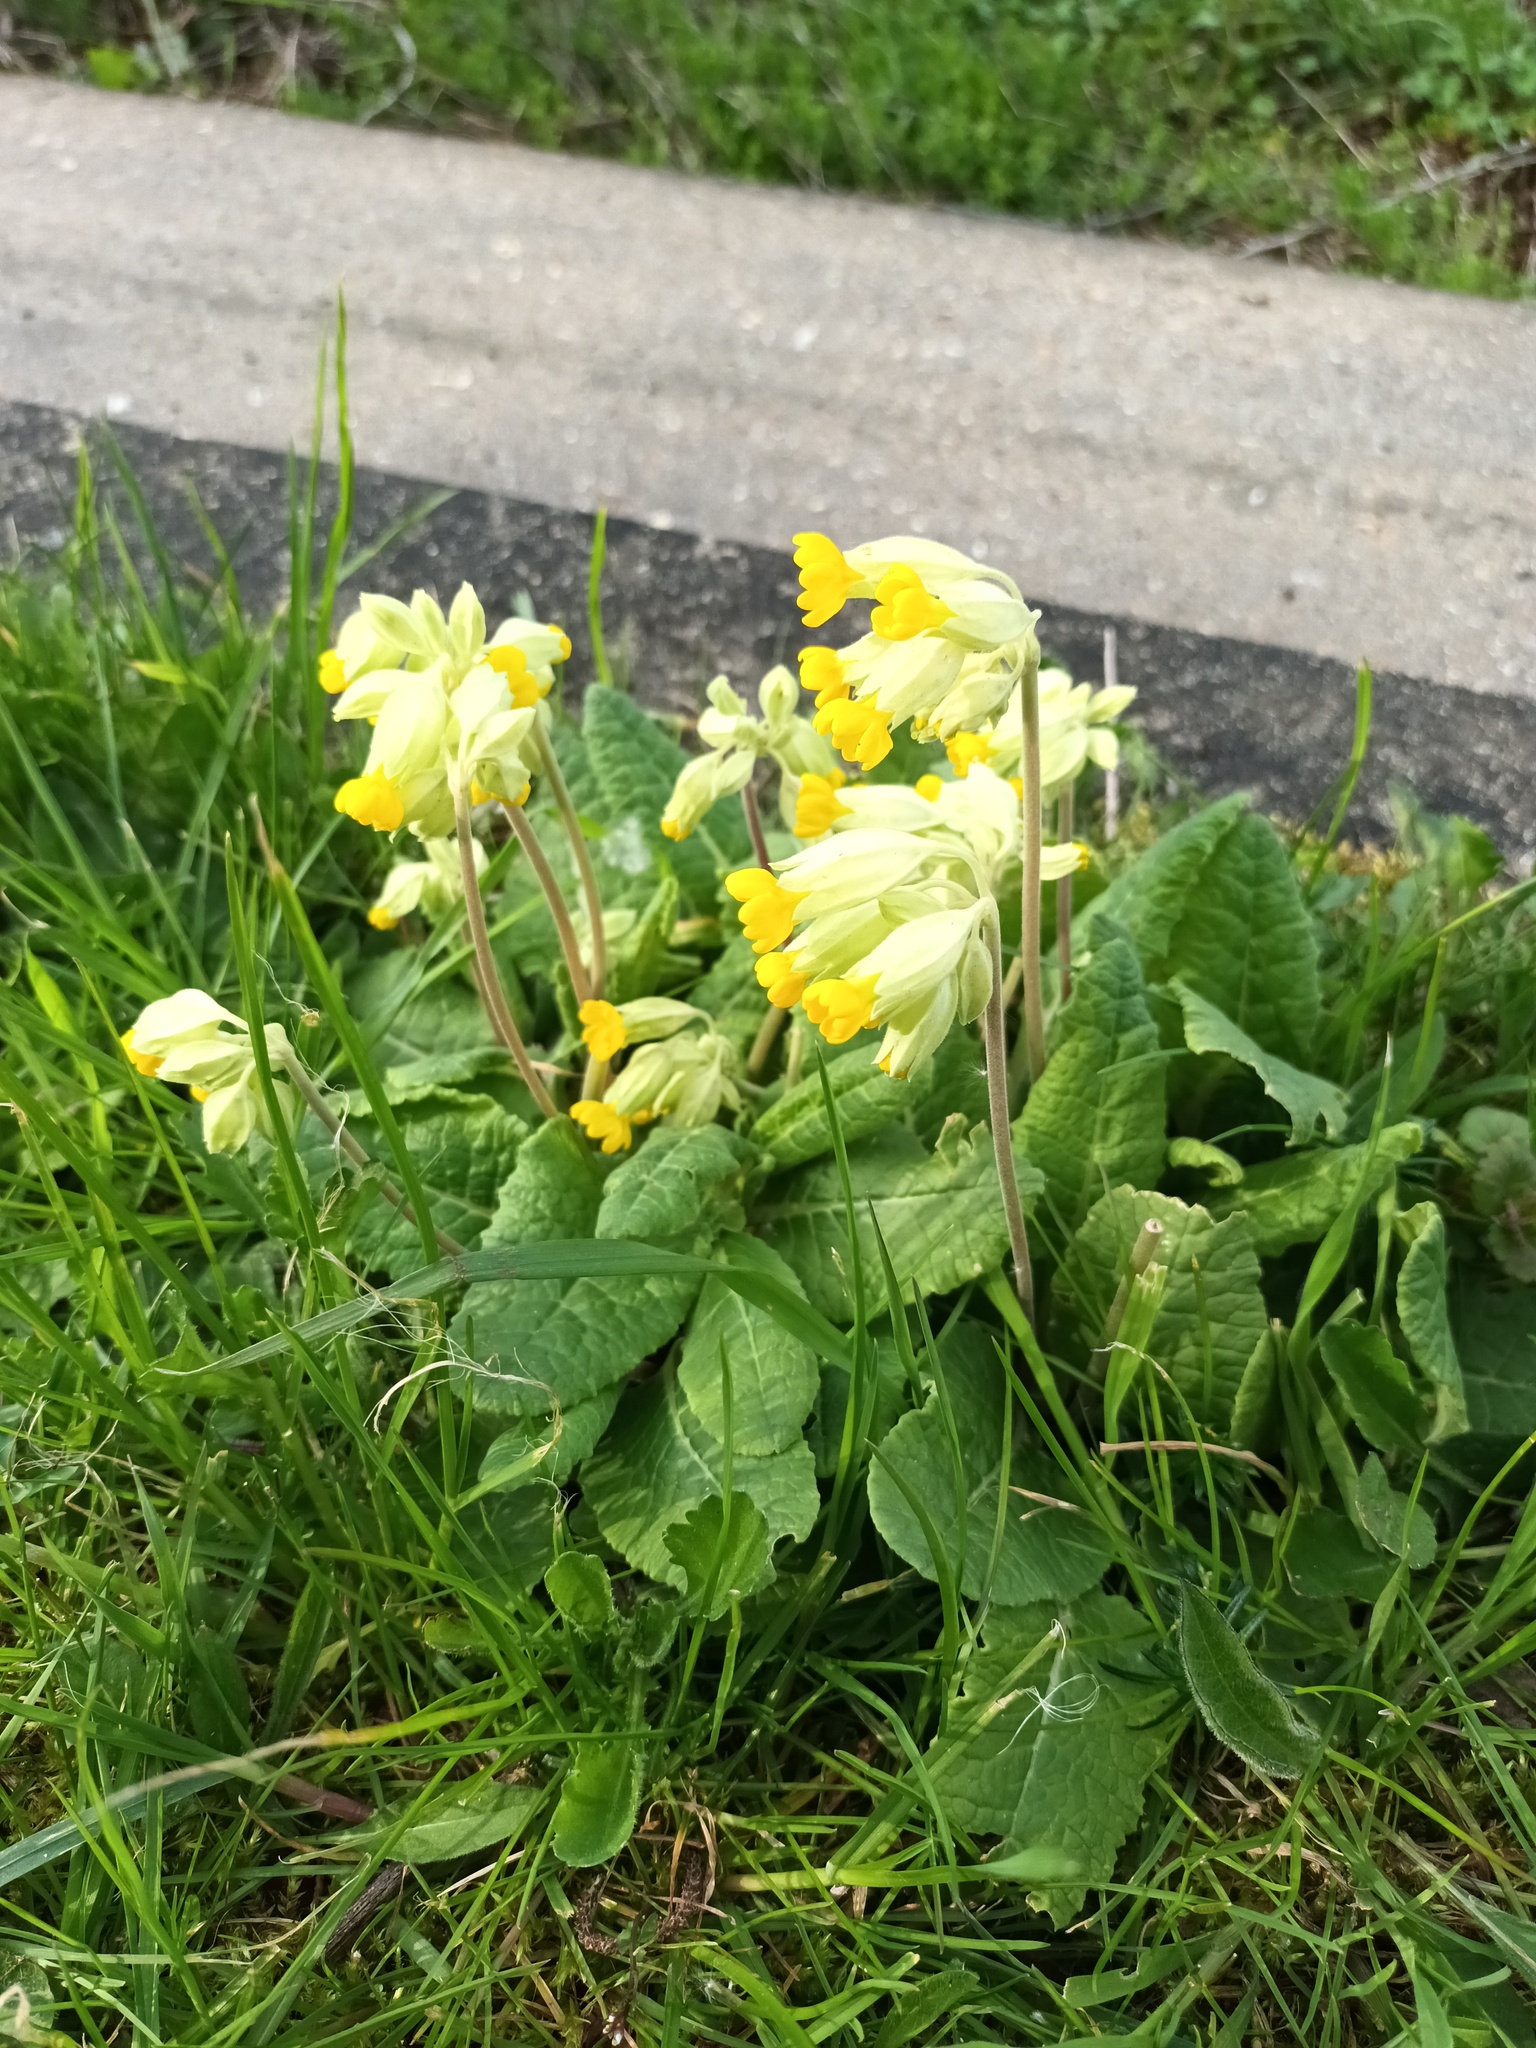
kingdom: Plantae
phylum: Tracheophyta
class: Magnoliopsida
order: Ericales
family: Primulaceae
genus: Primula
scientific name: Primula veris
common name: Cowslip
